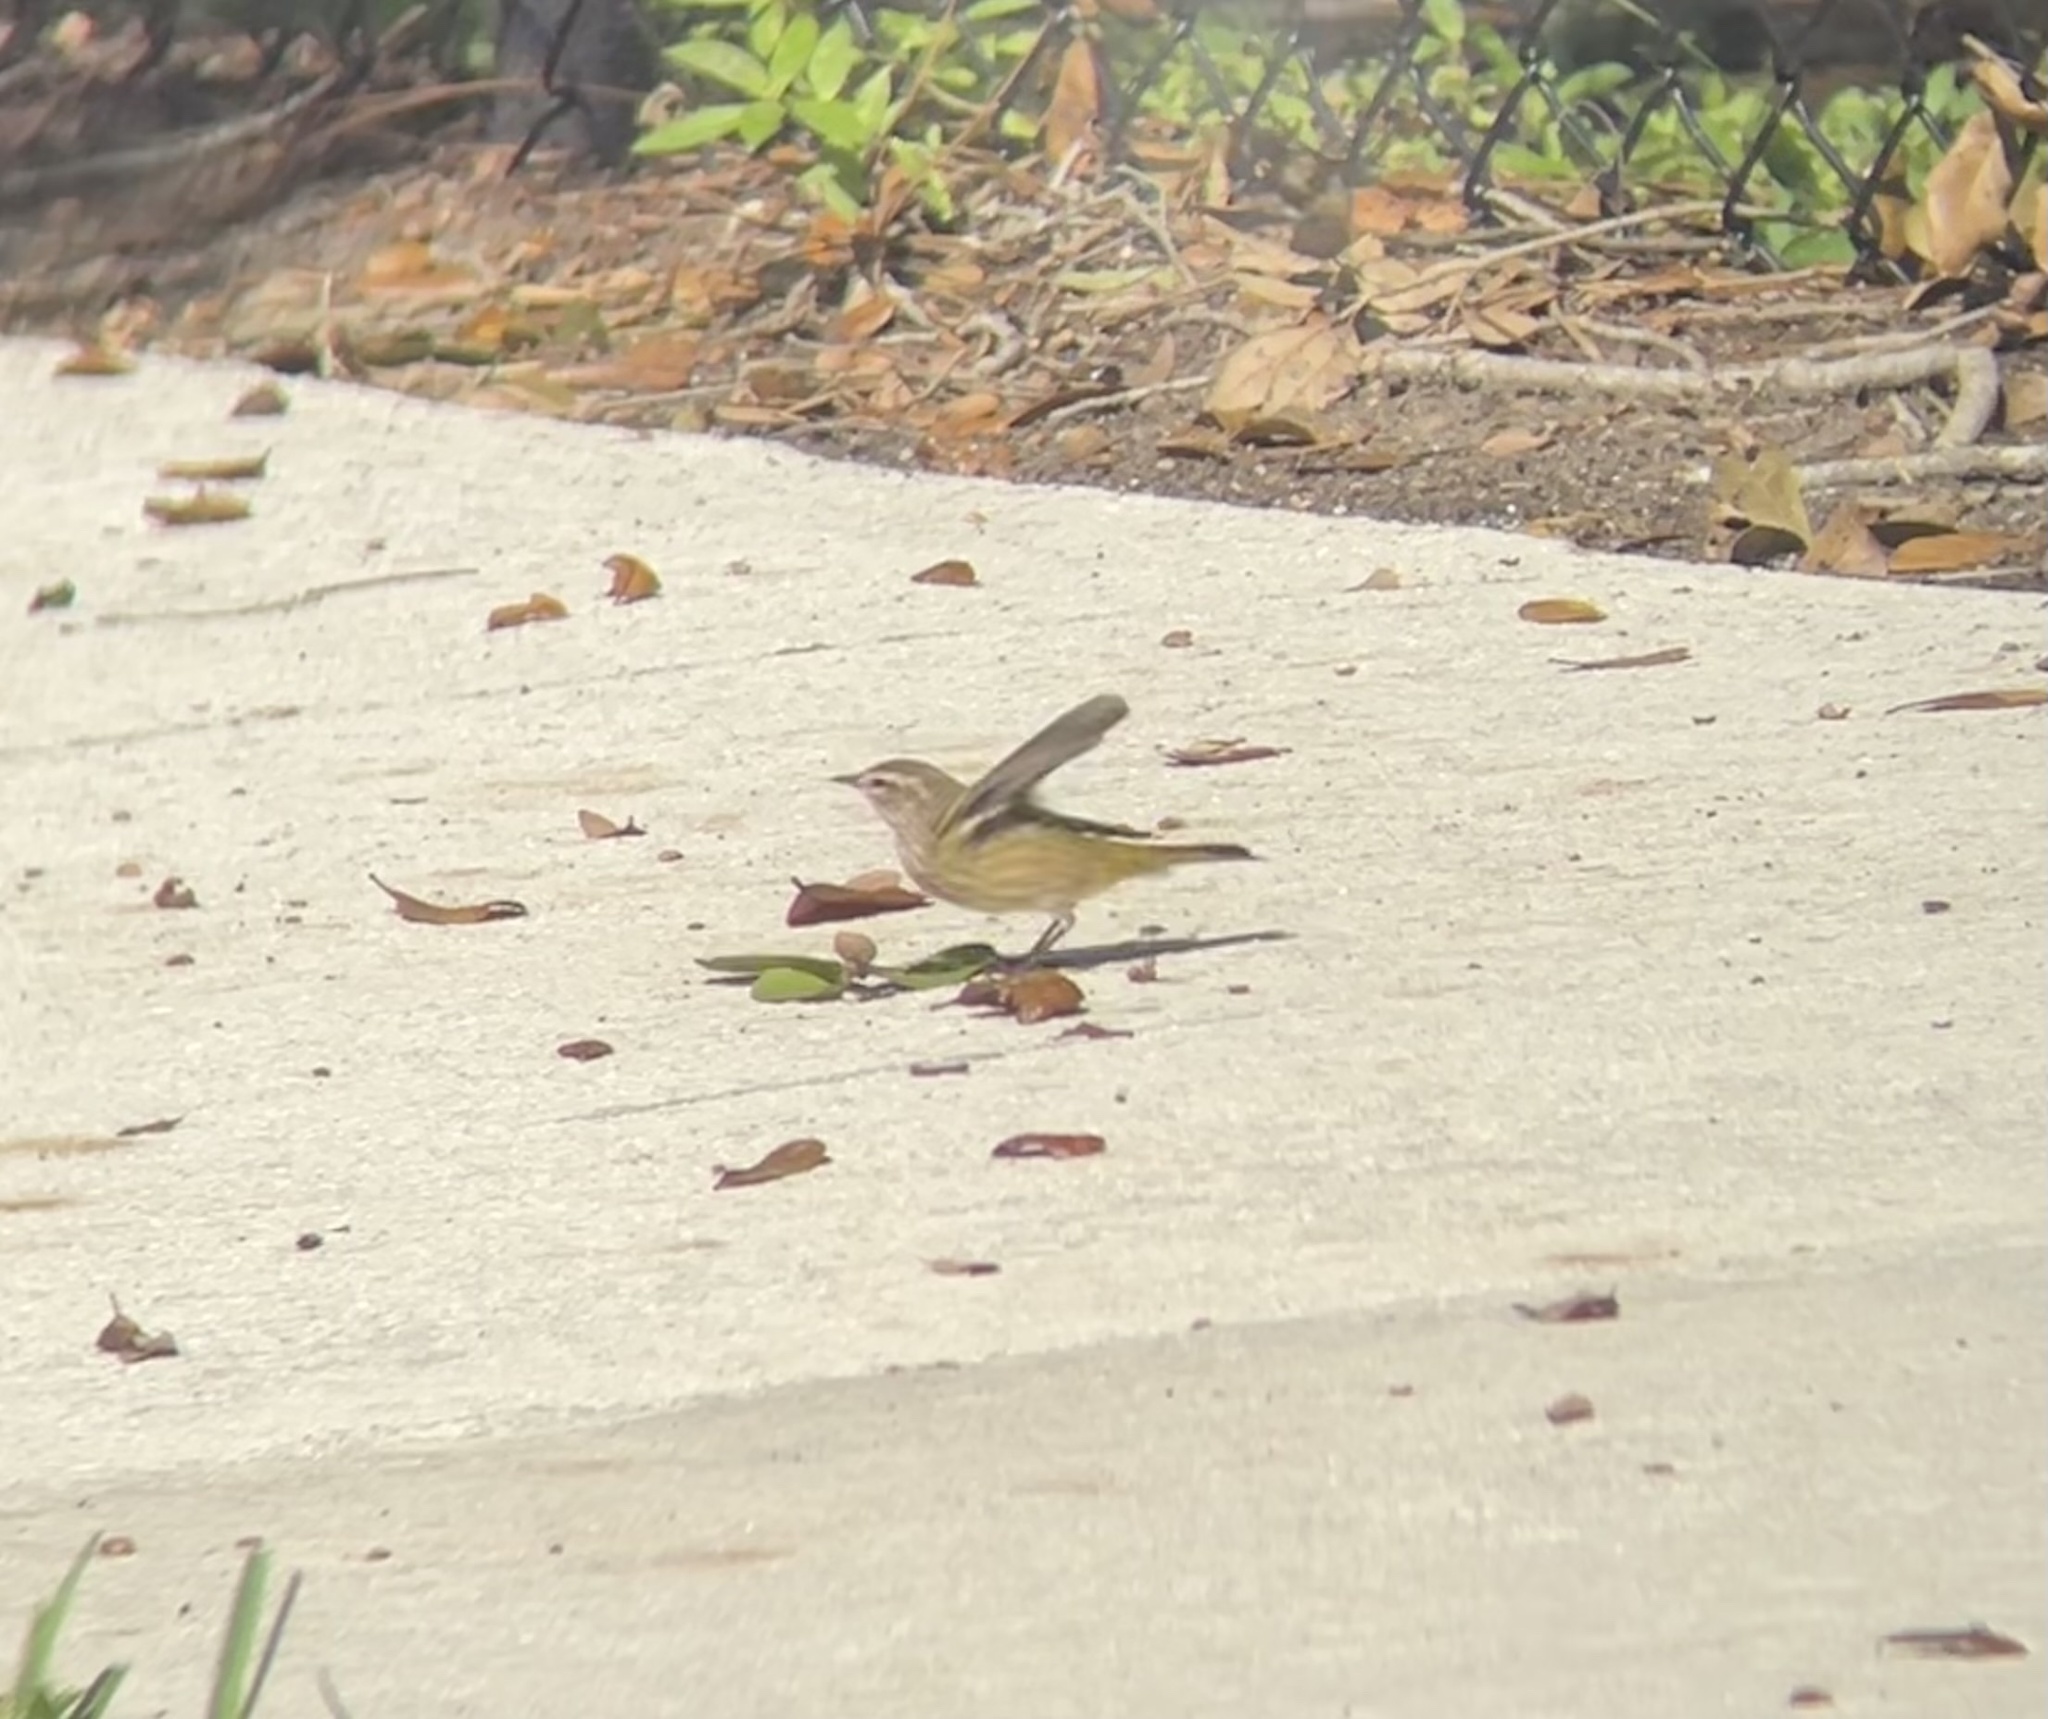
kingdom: Animalia
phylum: Chordata
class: Aves
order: Passeriformes
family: Parulidae
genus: Setophaga
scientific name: Setophaga palmarum
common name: Palm warbler
